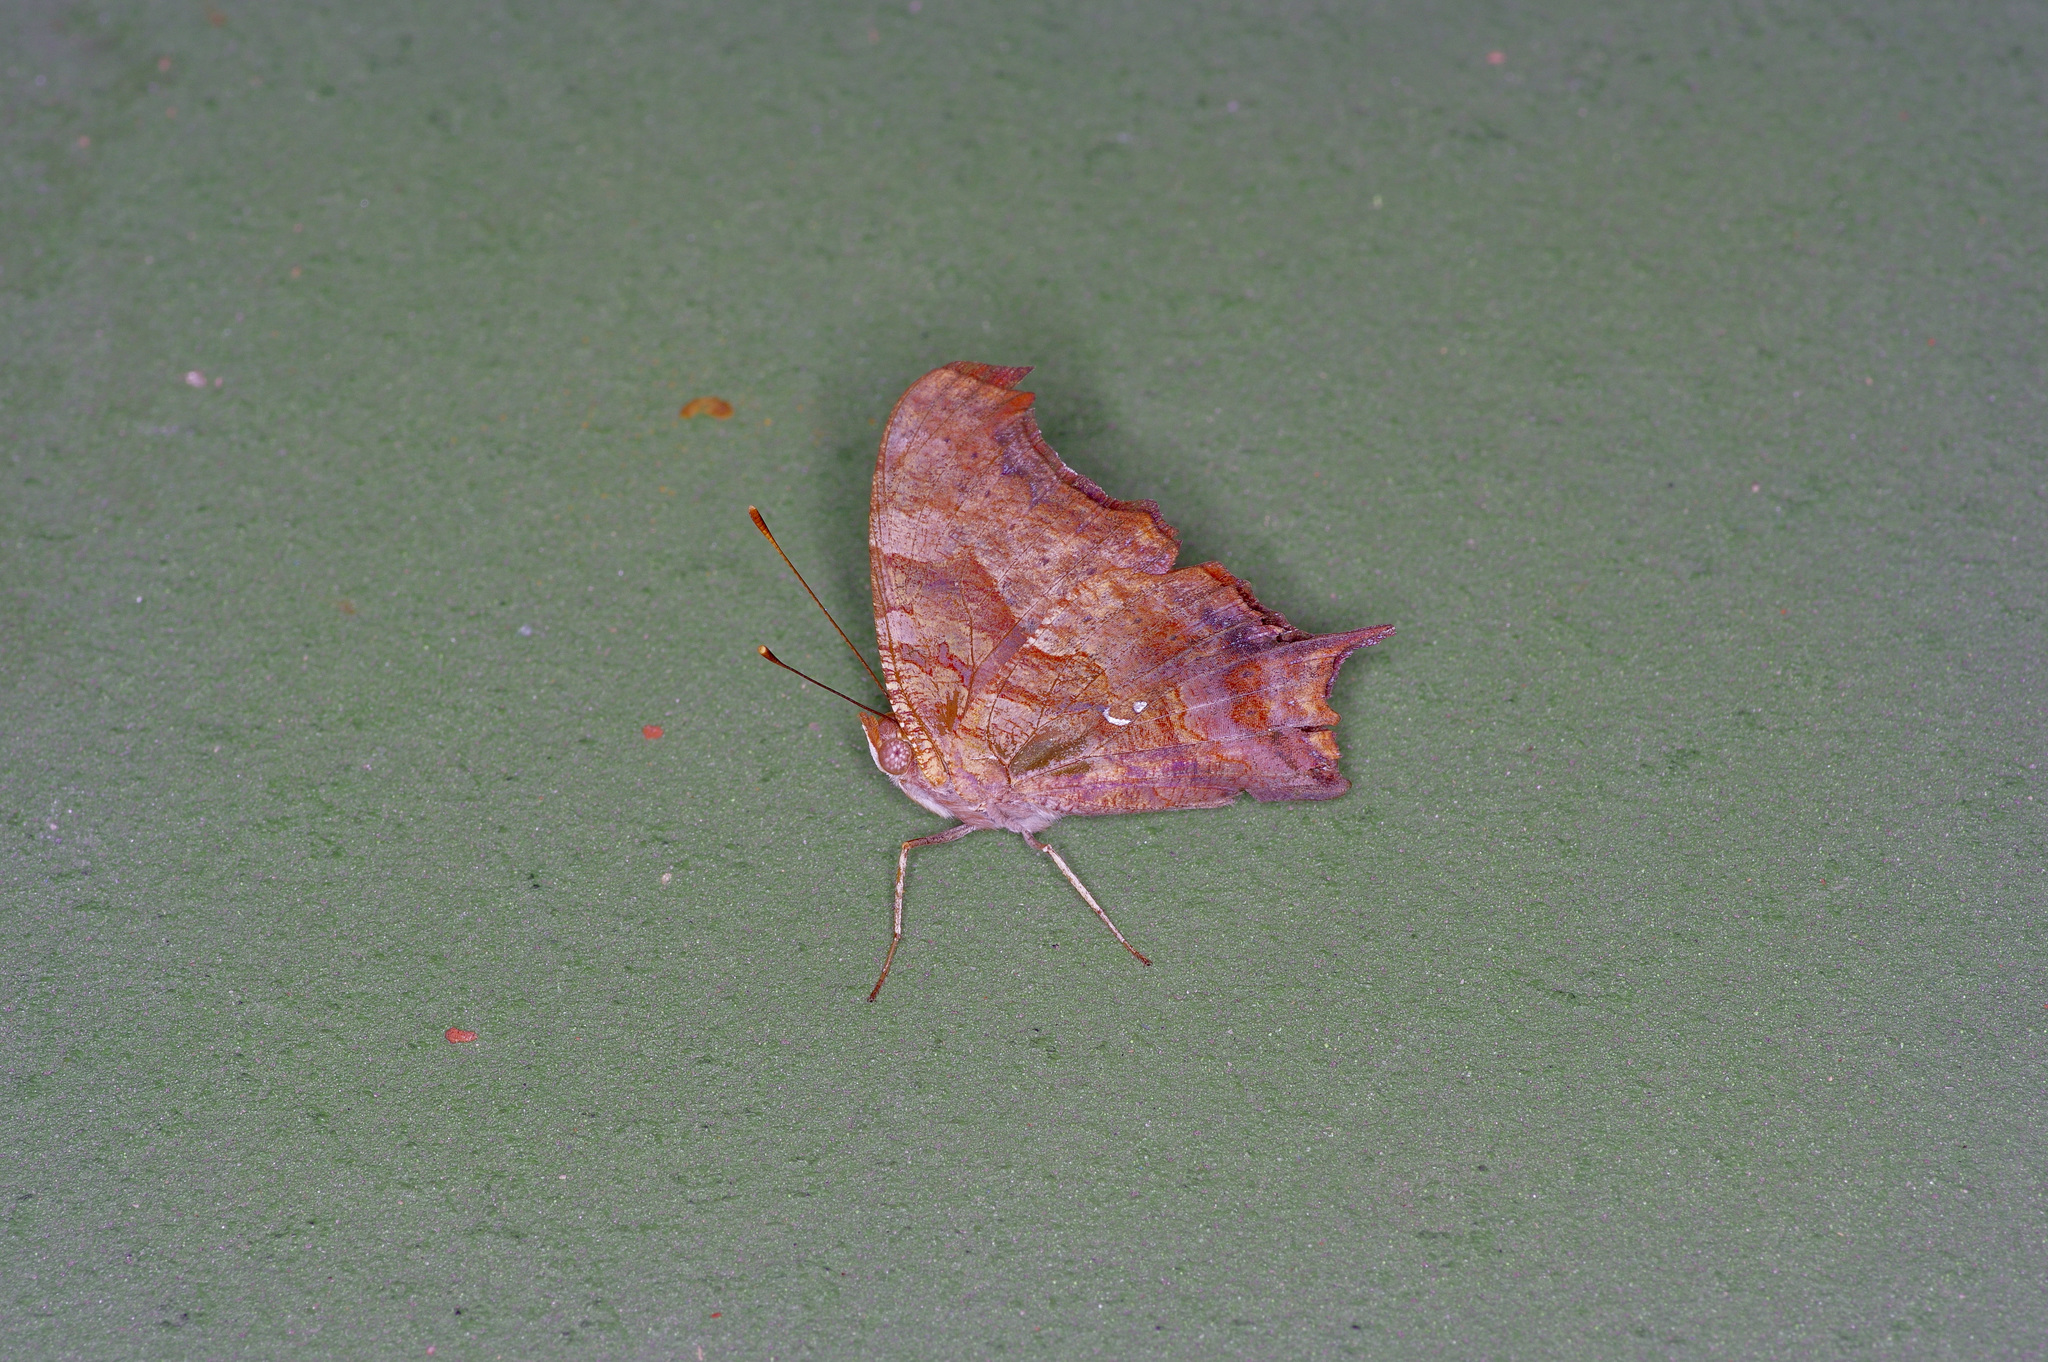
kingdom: Animalia
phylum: Arthropoda
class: Insecta
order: Lepidoptera
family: Nymphalidae
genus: Polygonia
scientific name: Polygonia interrogationis
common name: Question mark
